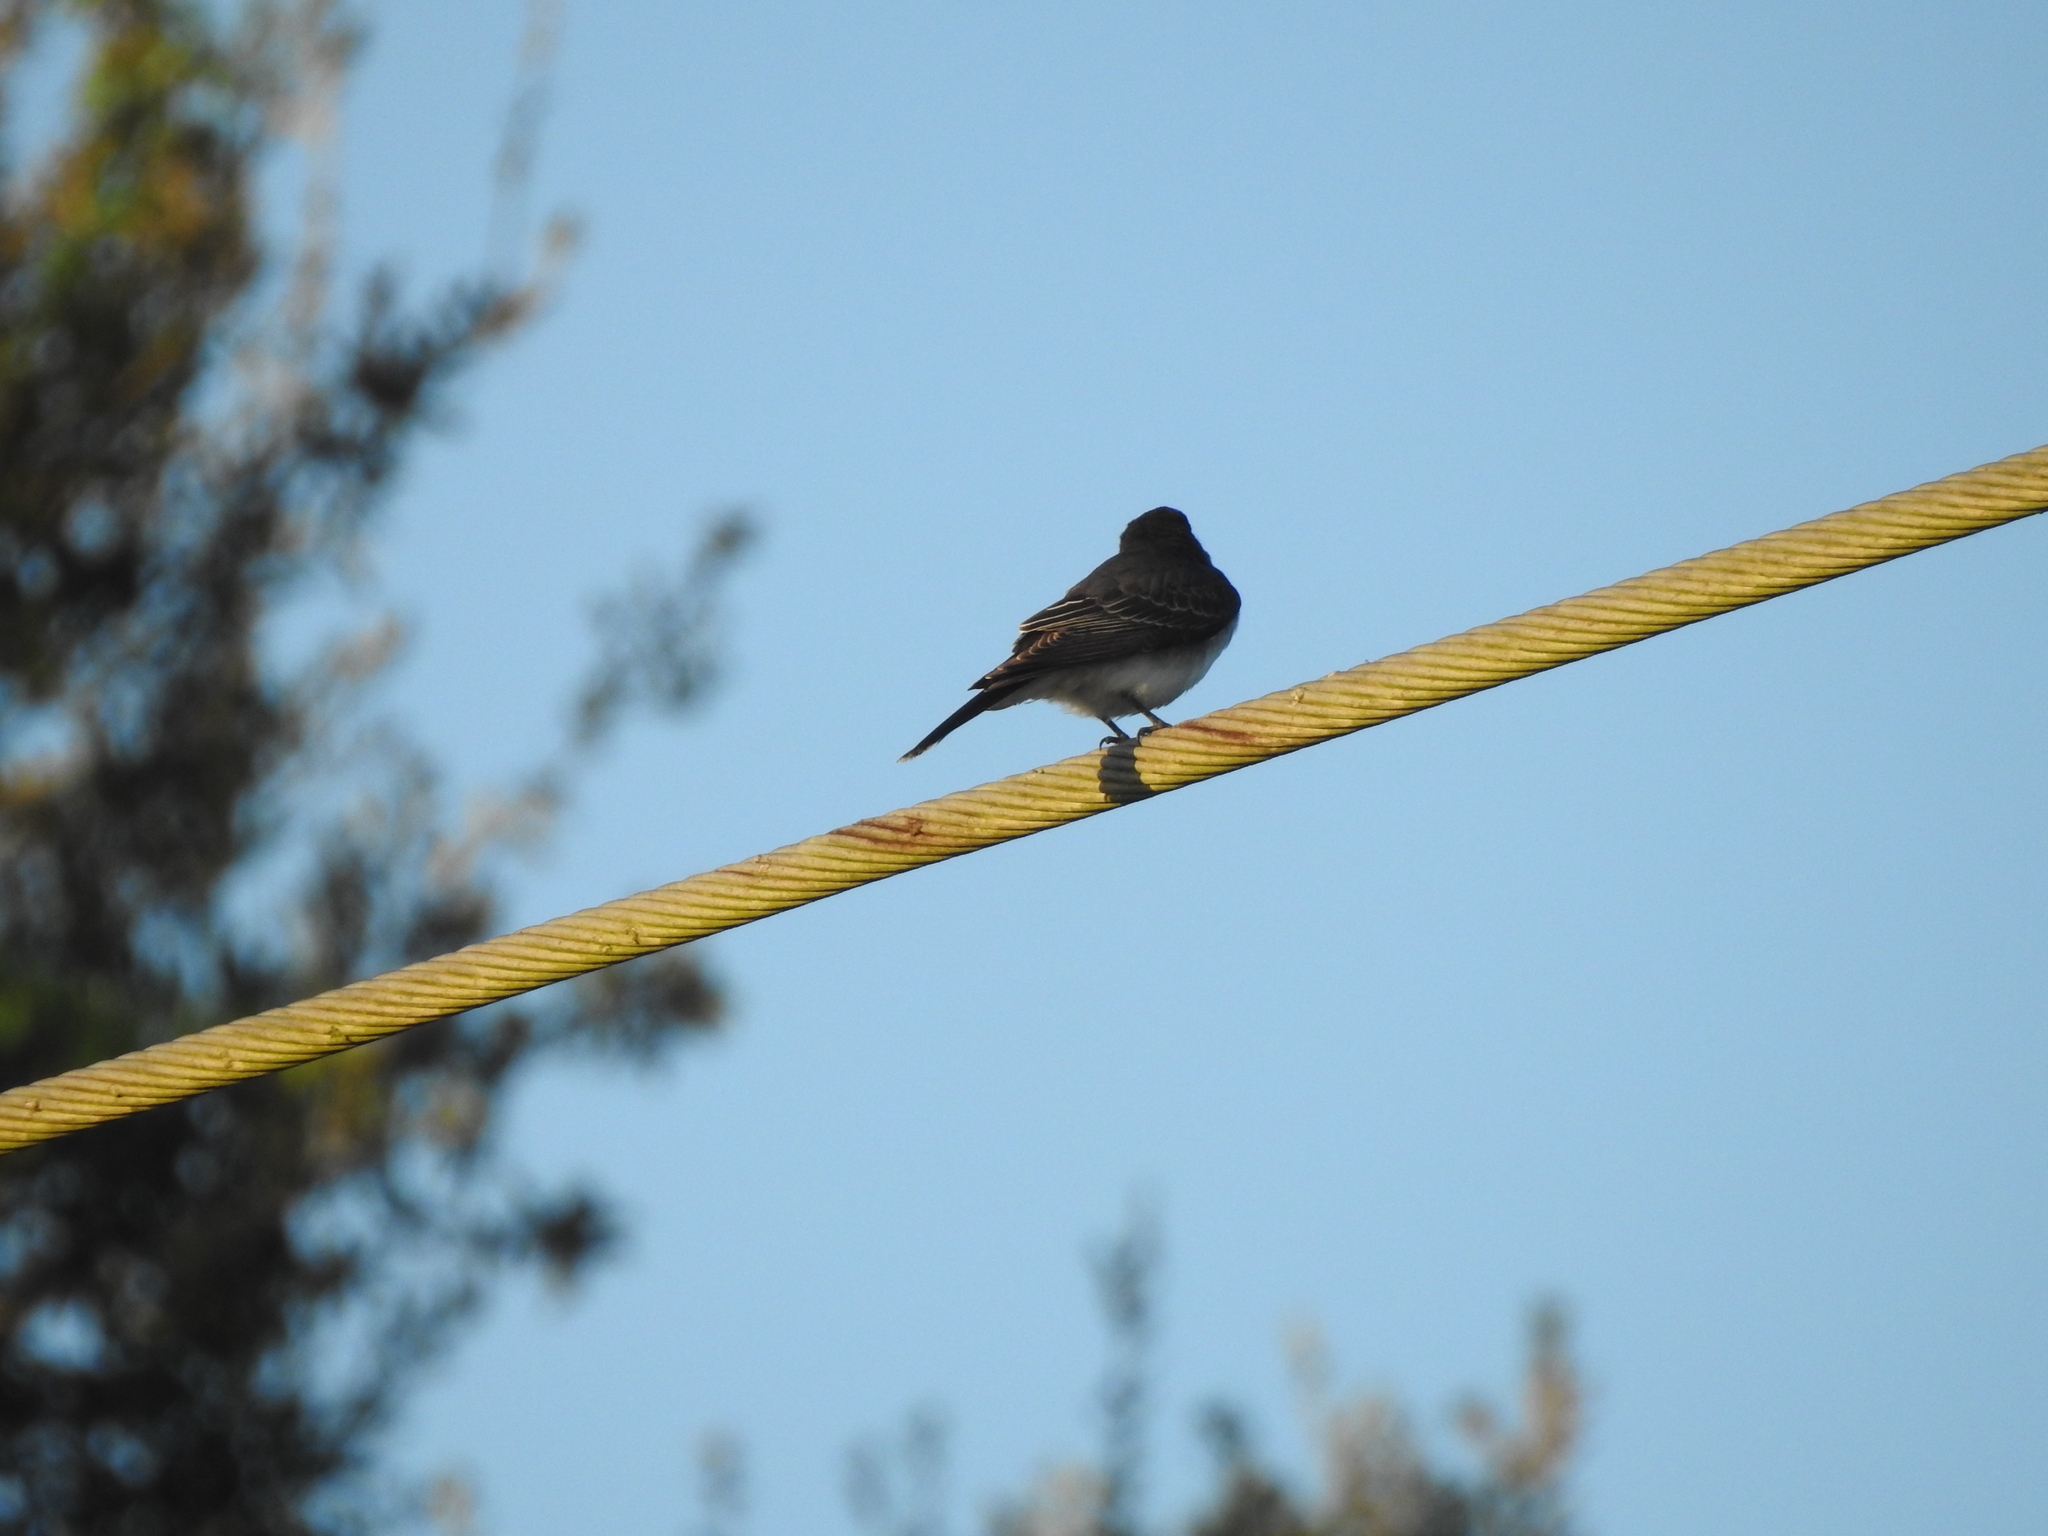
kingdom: Animalia
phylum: Chordata
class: Aves
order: Passeriformes
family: Tyrannidae
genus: Tyrannus
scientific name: Tyrannus tyrannus
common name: Eastern kingbird
